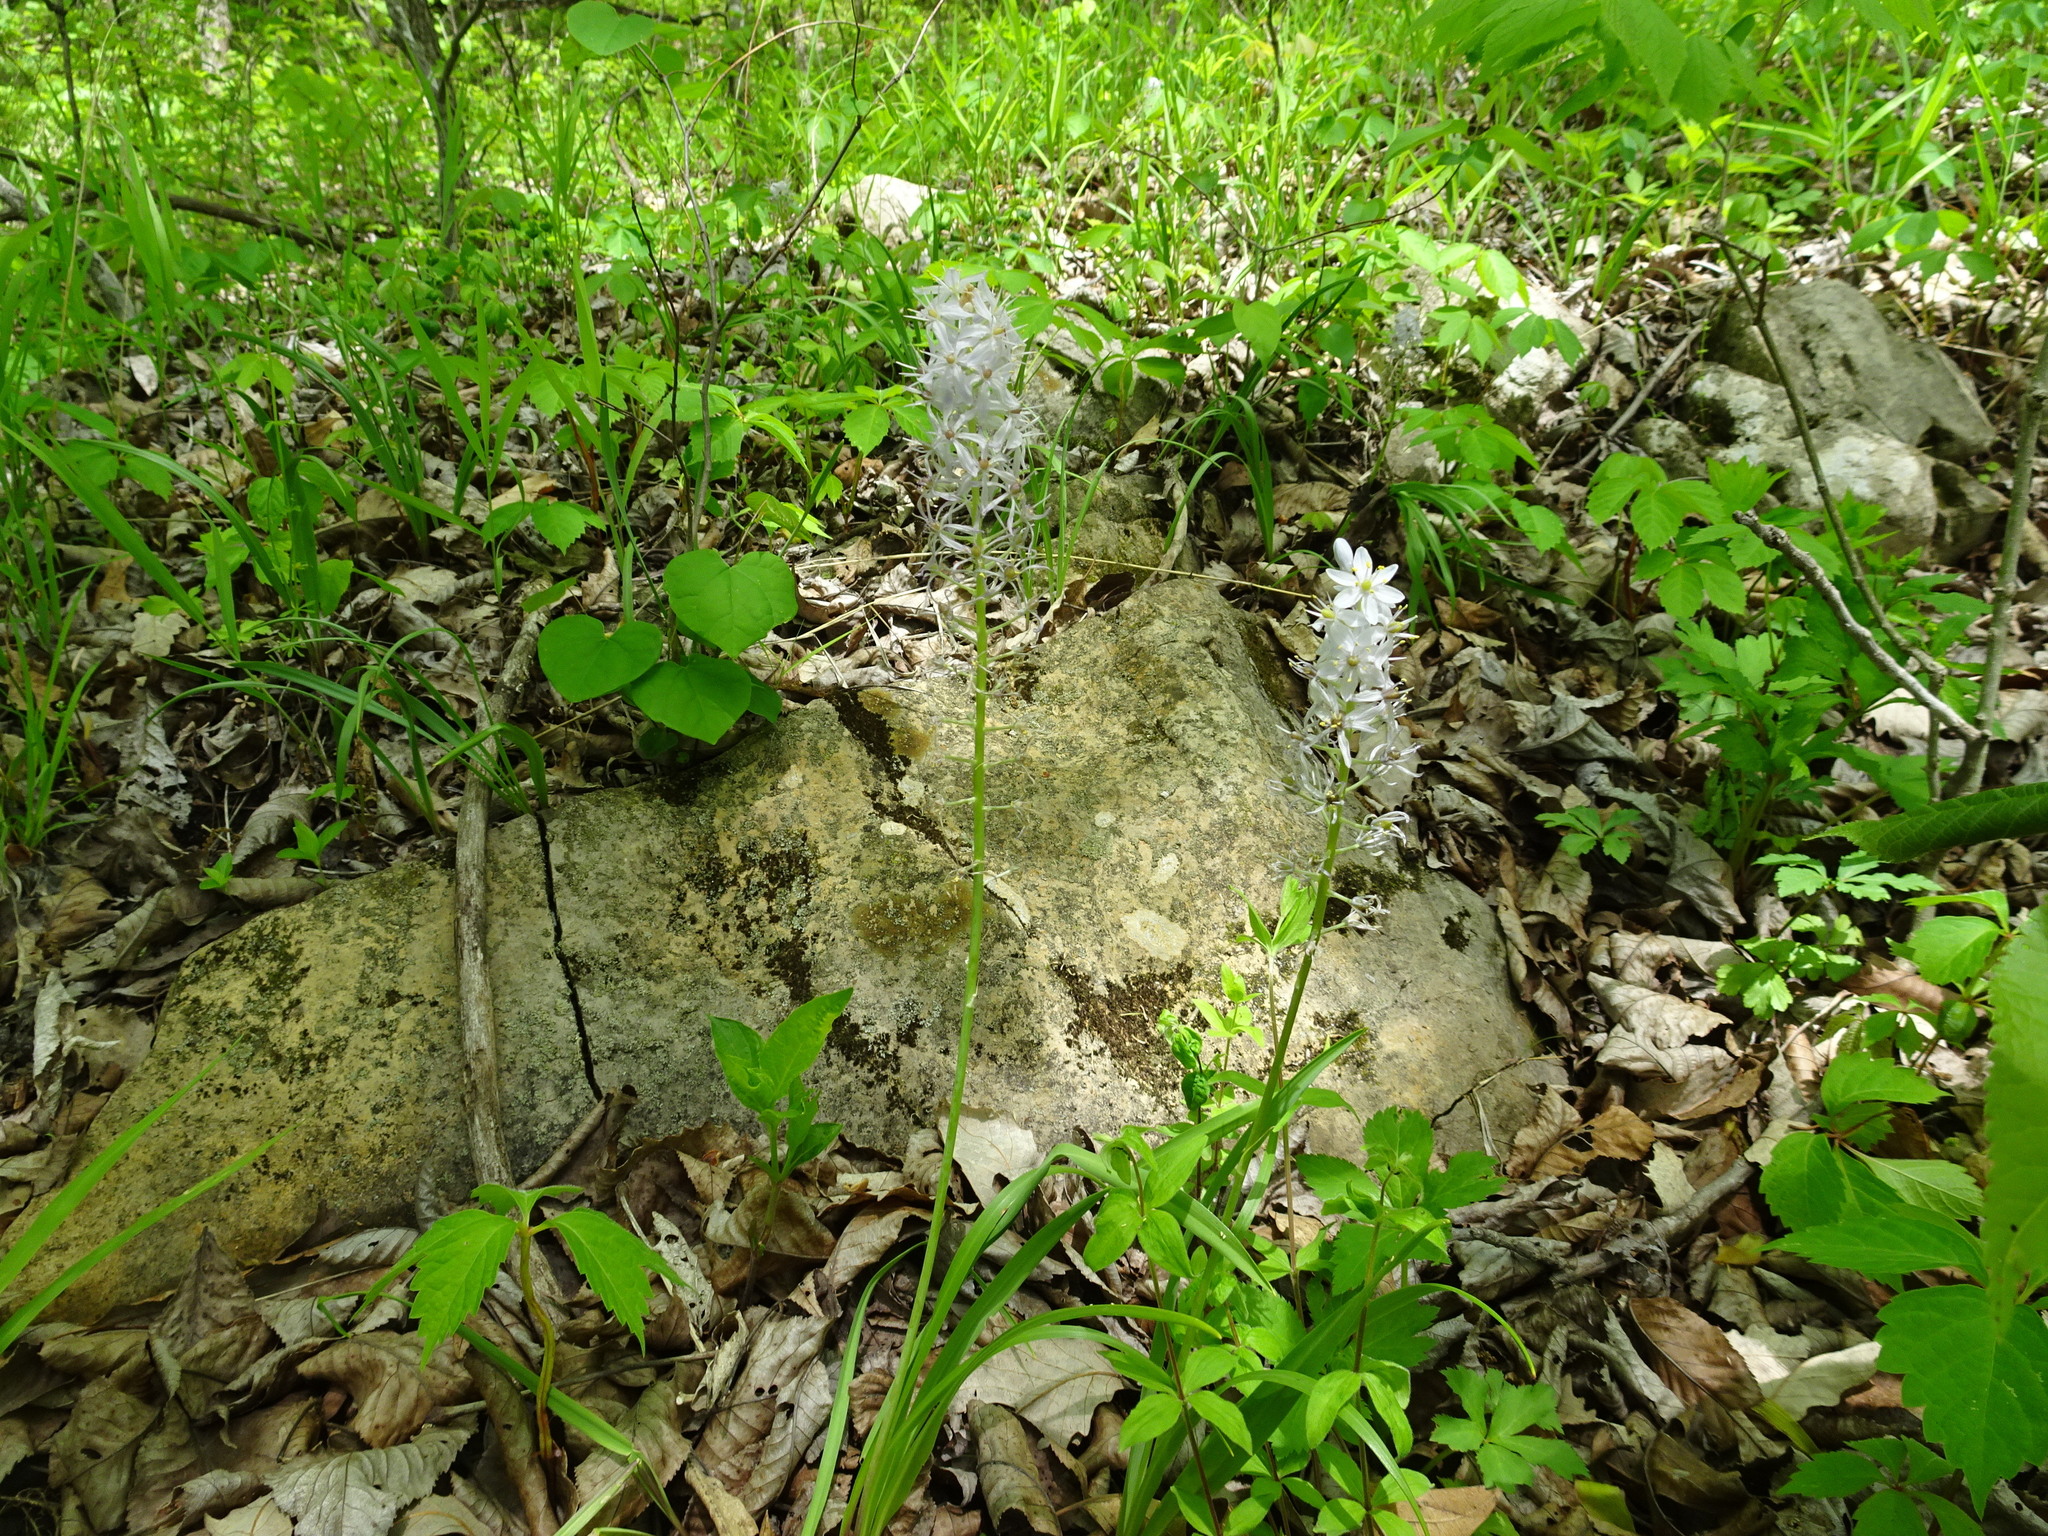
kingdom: Plantae
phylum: Tracheophyta
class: Liliopsida
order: Asparagales
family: Asparagaceae
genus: Camassia
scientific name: Camassia scilloides
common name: Wild hyacinth
